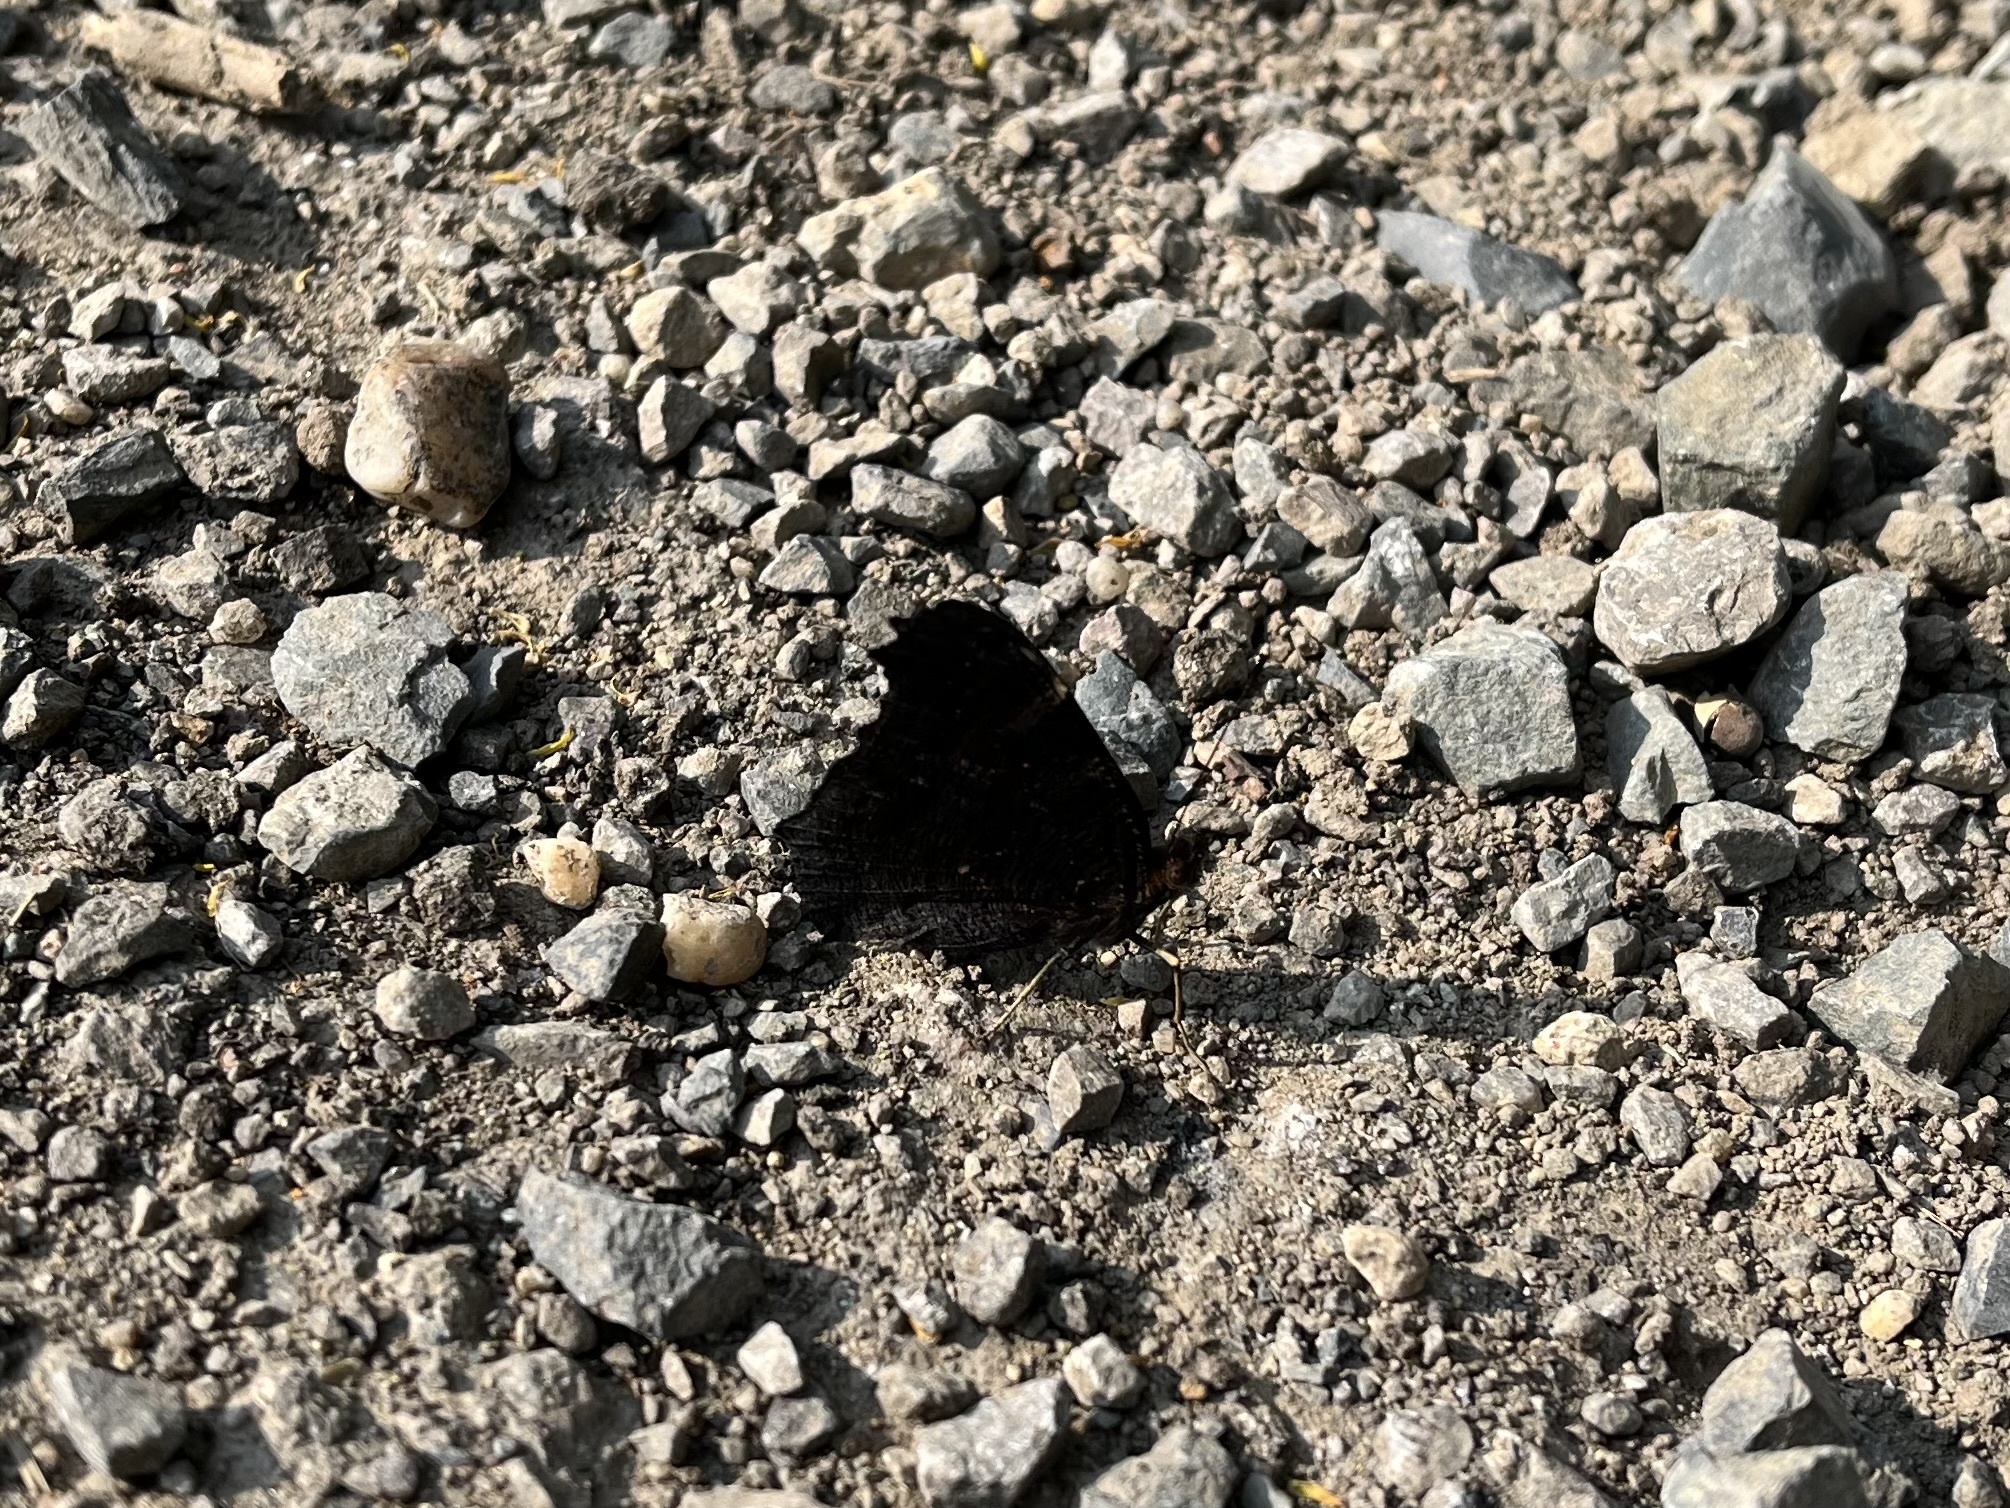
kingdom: Animalia
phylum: Arthropoda
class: Insecta
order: Lepidoptera
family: Nymphalidae
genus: Aglais
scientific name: Aglais io
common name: Peacock
